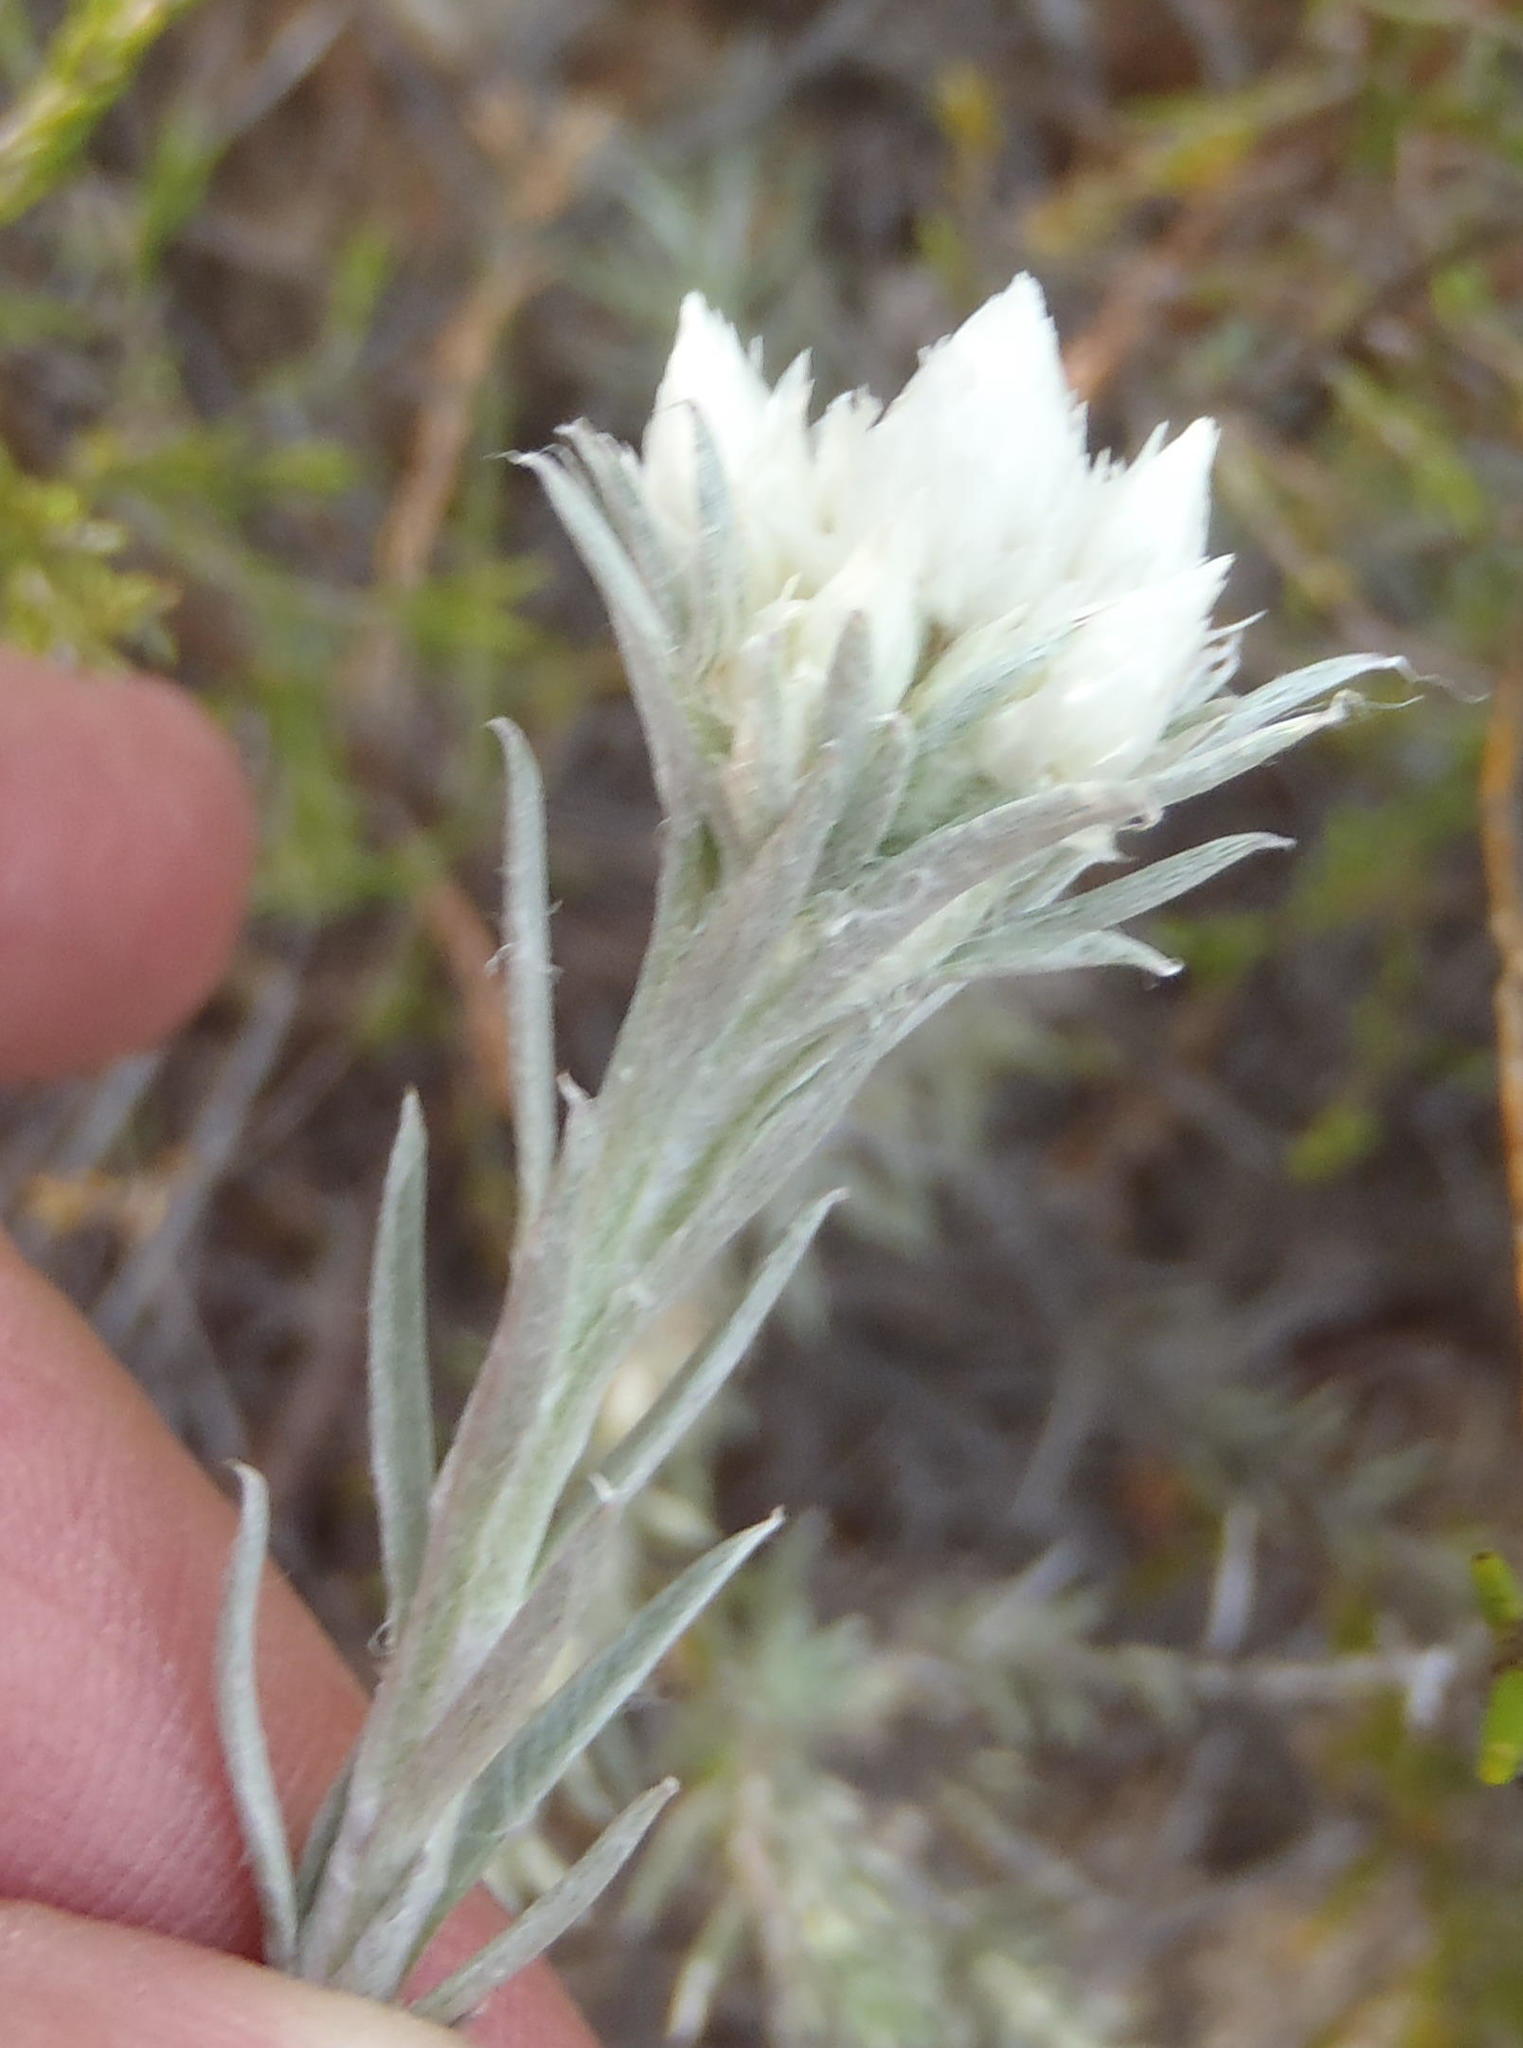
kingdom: Plantae
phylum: Tracheophyta
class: Magnoliopsida
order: Asterales
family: Asteraceae
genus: Achyranthemum
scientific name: Achyranthemum paniculatum
